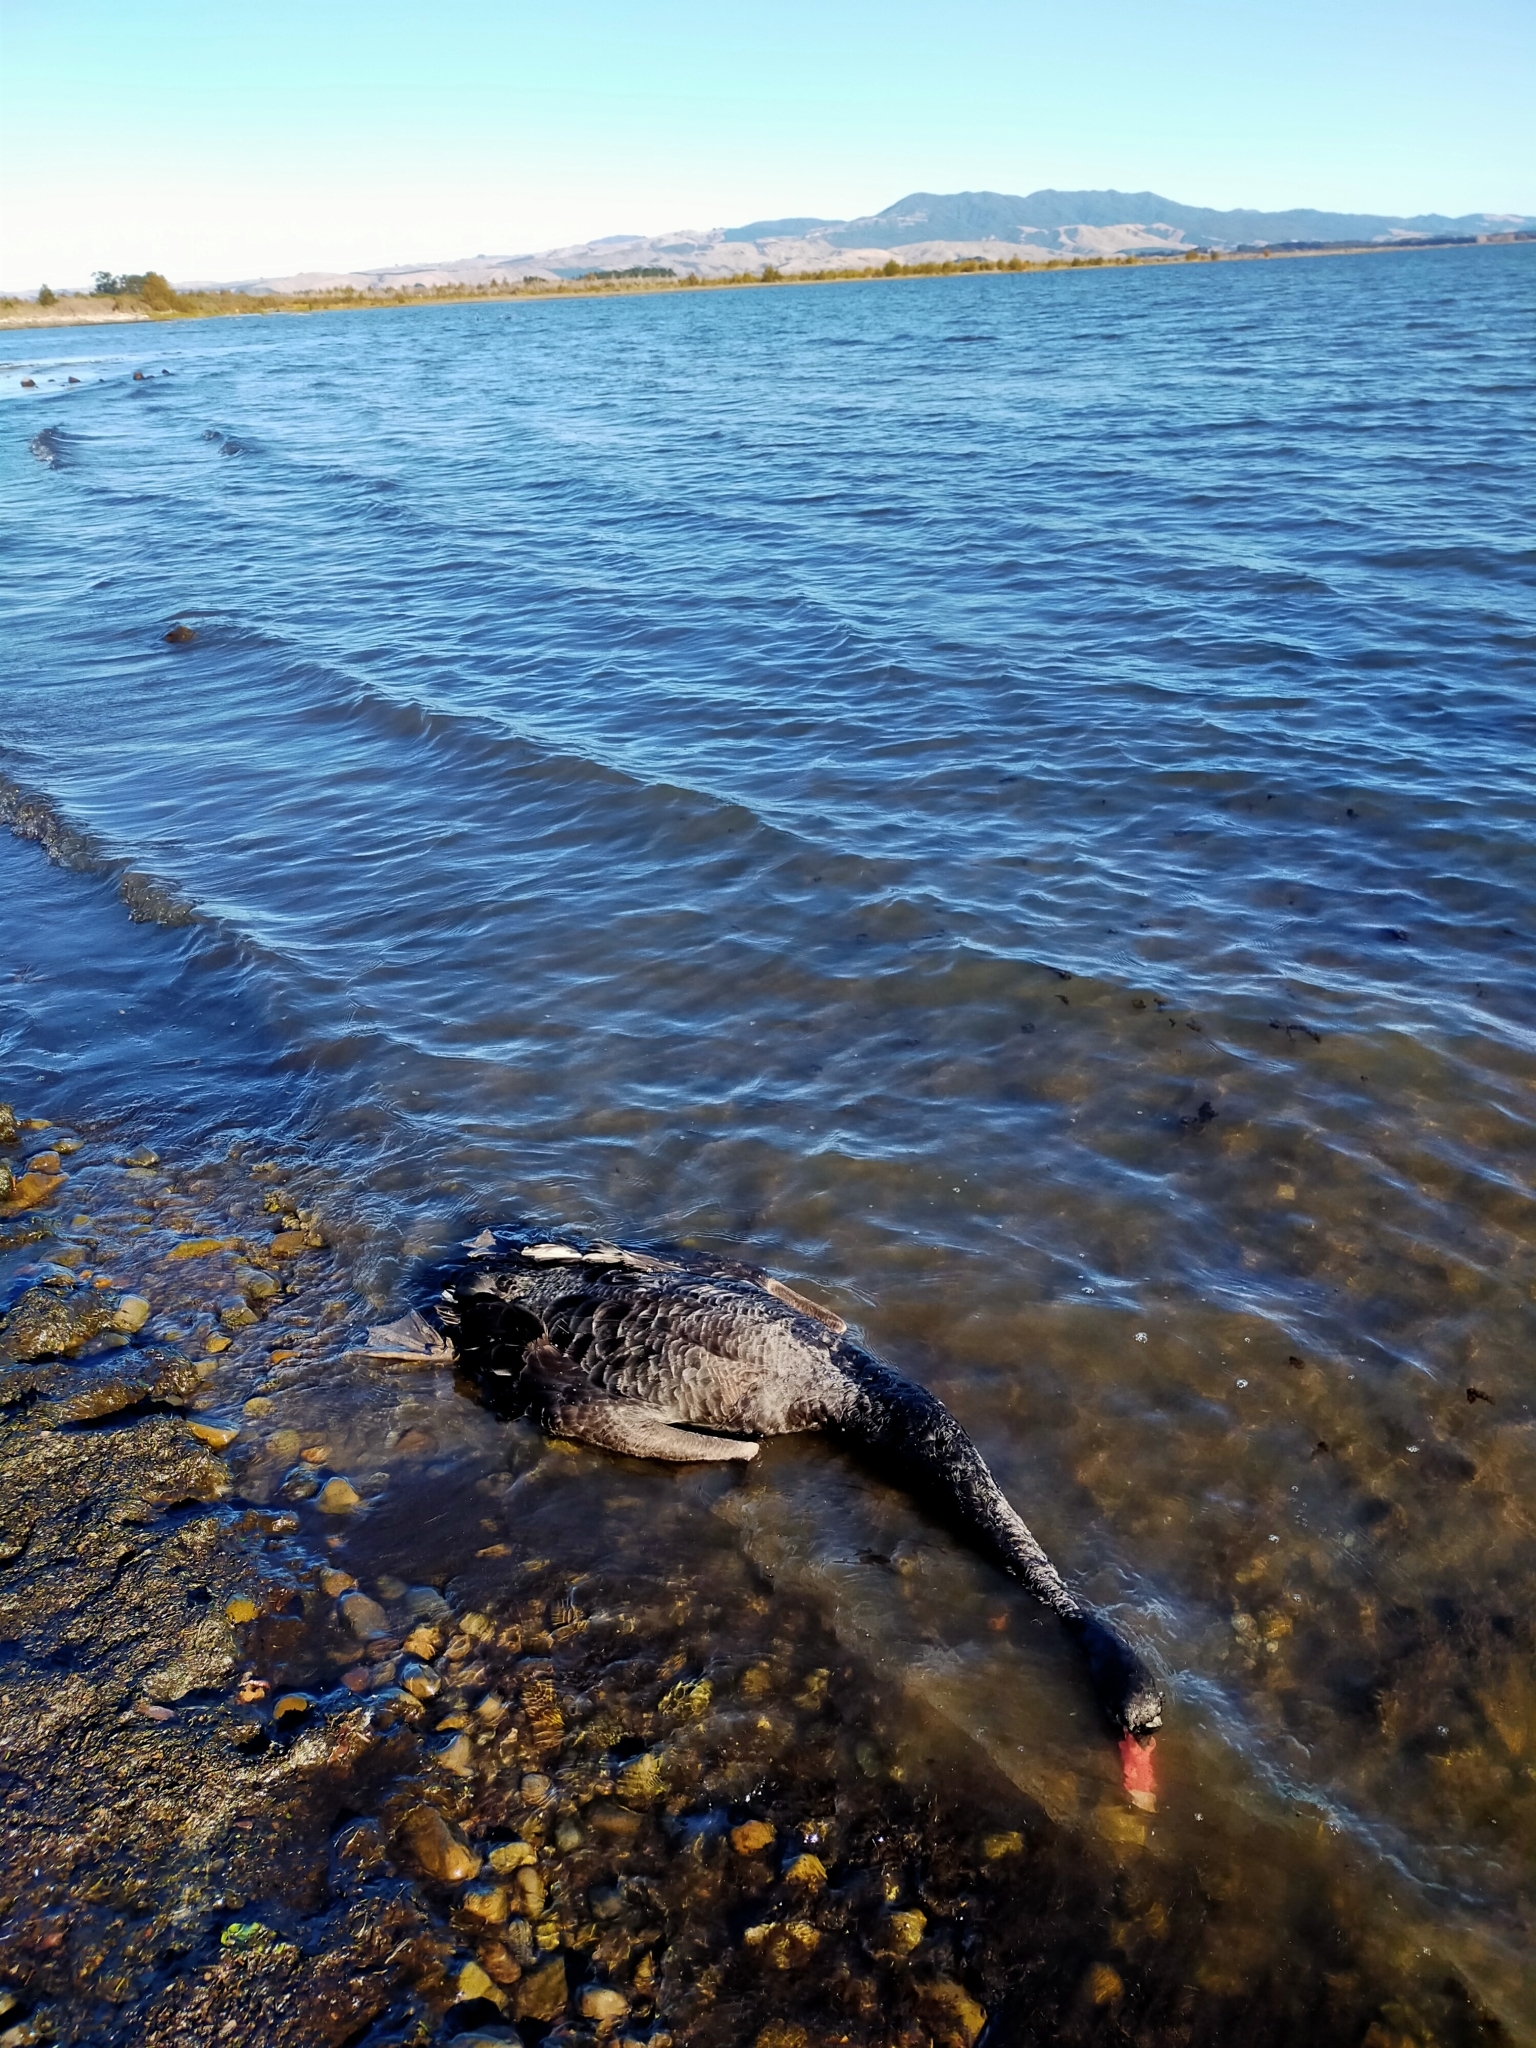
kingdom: Animalia
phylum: Chordata
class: Aves
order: Anseriformes
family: Anatidae
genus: Cygnus
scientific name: Cygnus atratus
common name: Black swan
